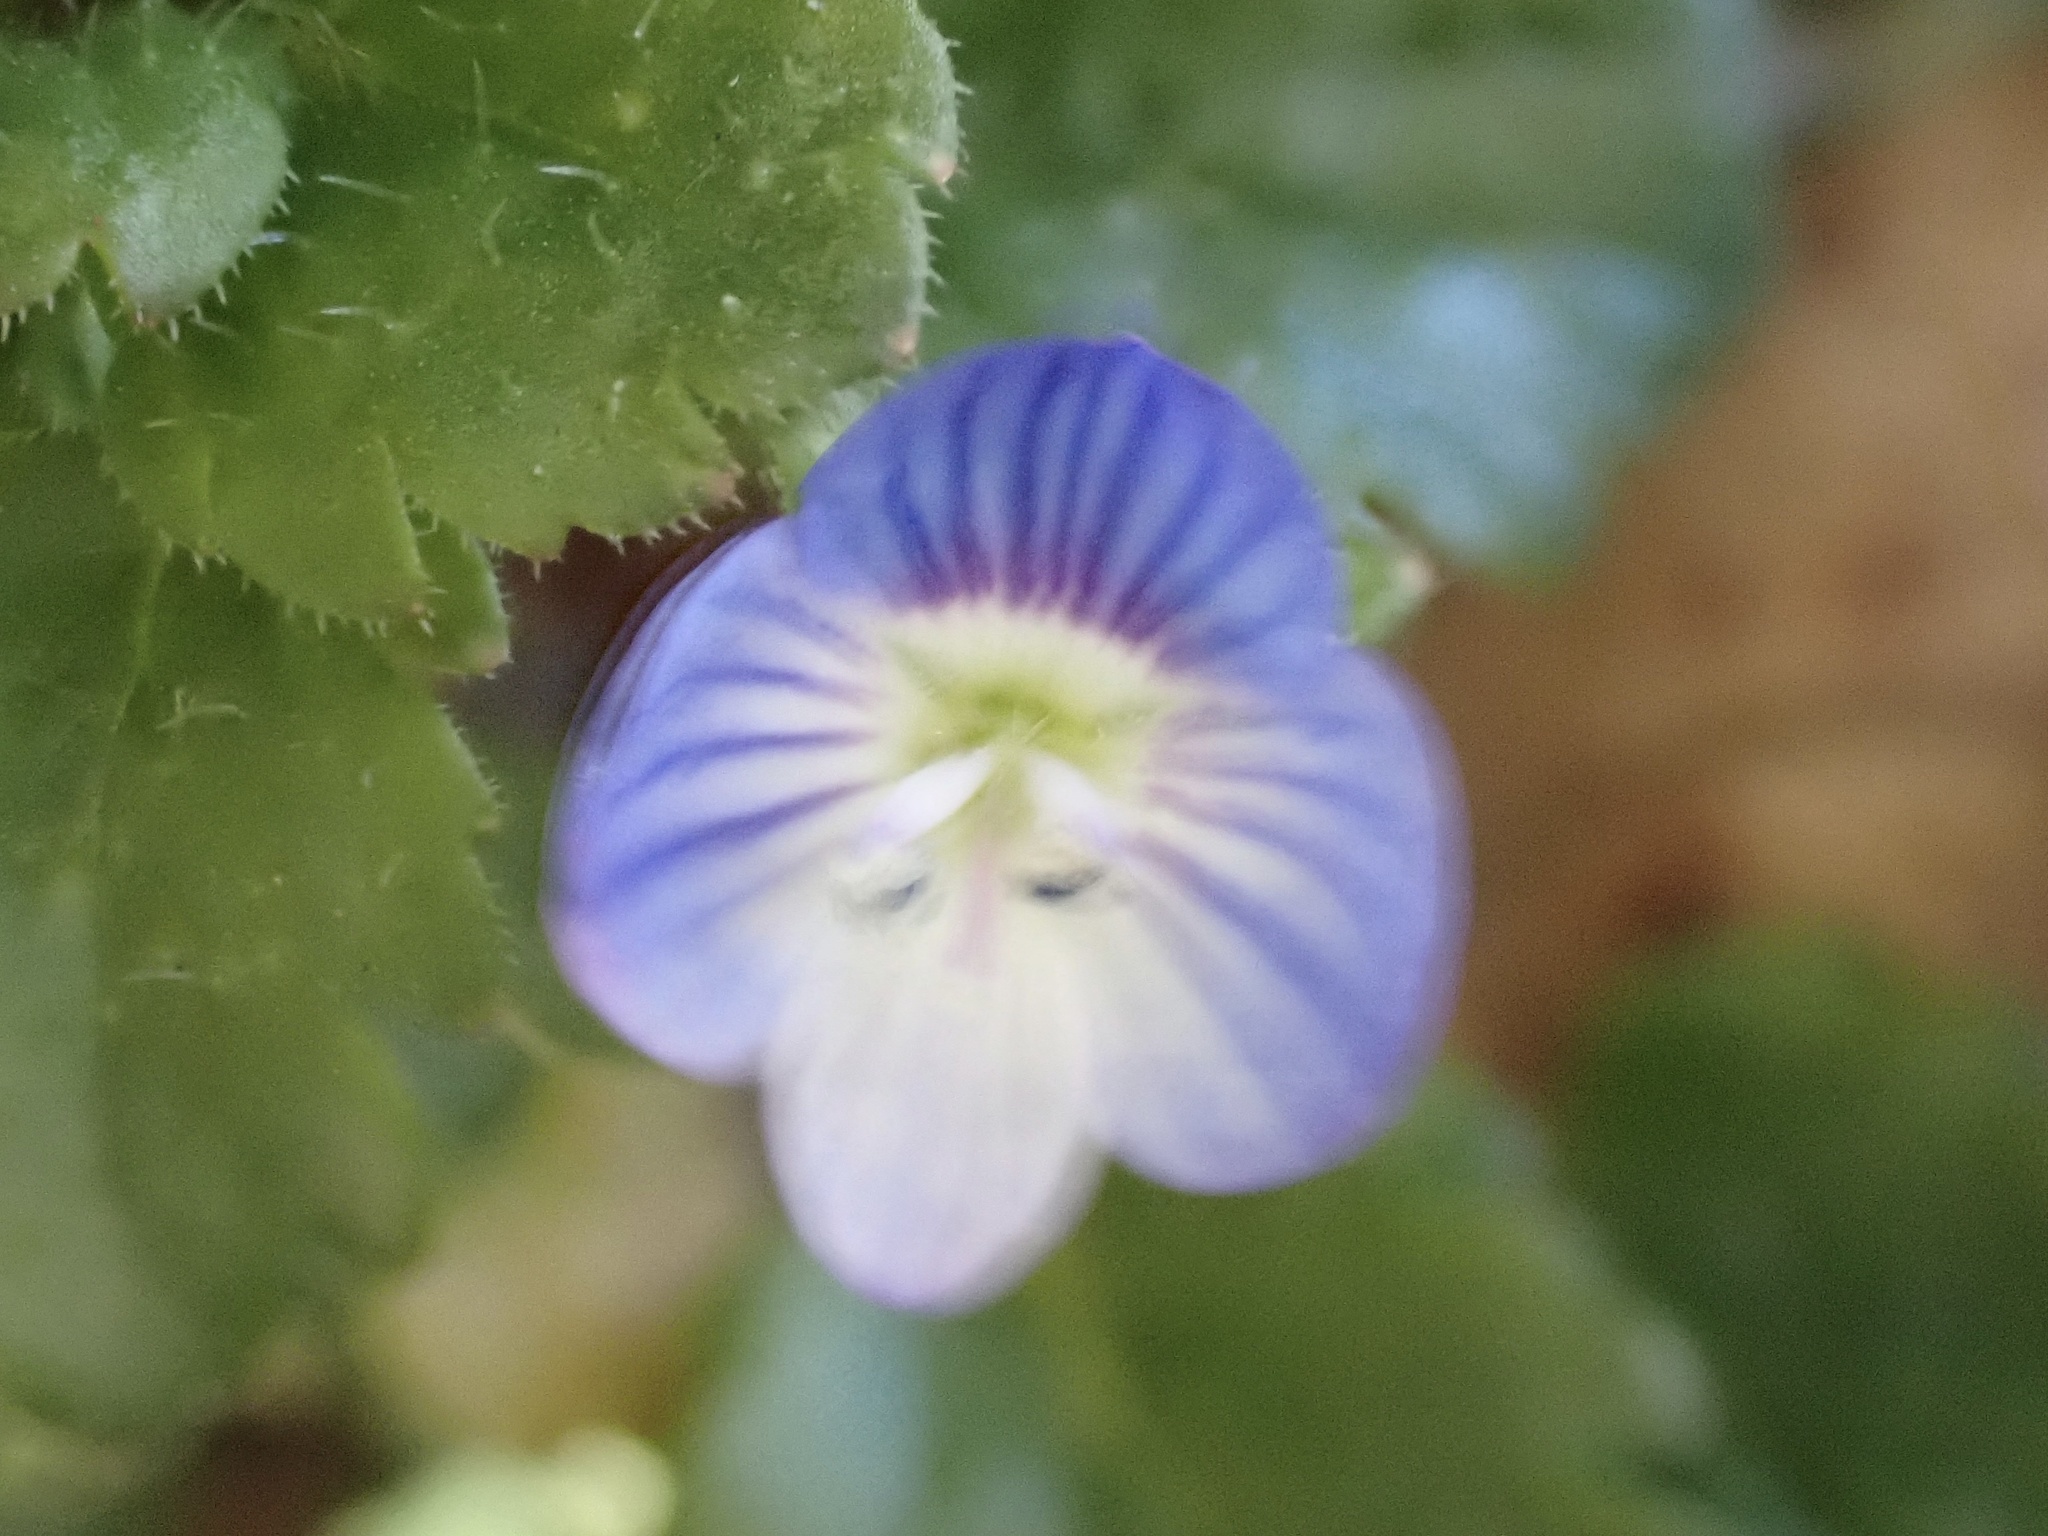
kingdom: Plantae
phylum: Tracheophyta
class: Magnoliopsida
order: Lamiales
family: Plantaginaceae
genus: Veronica
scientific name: Veronica persica
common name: Common field-speedwell
